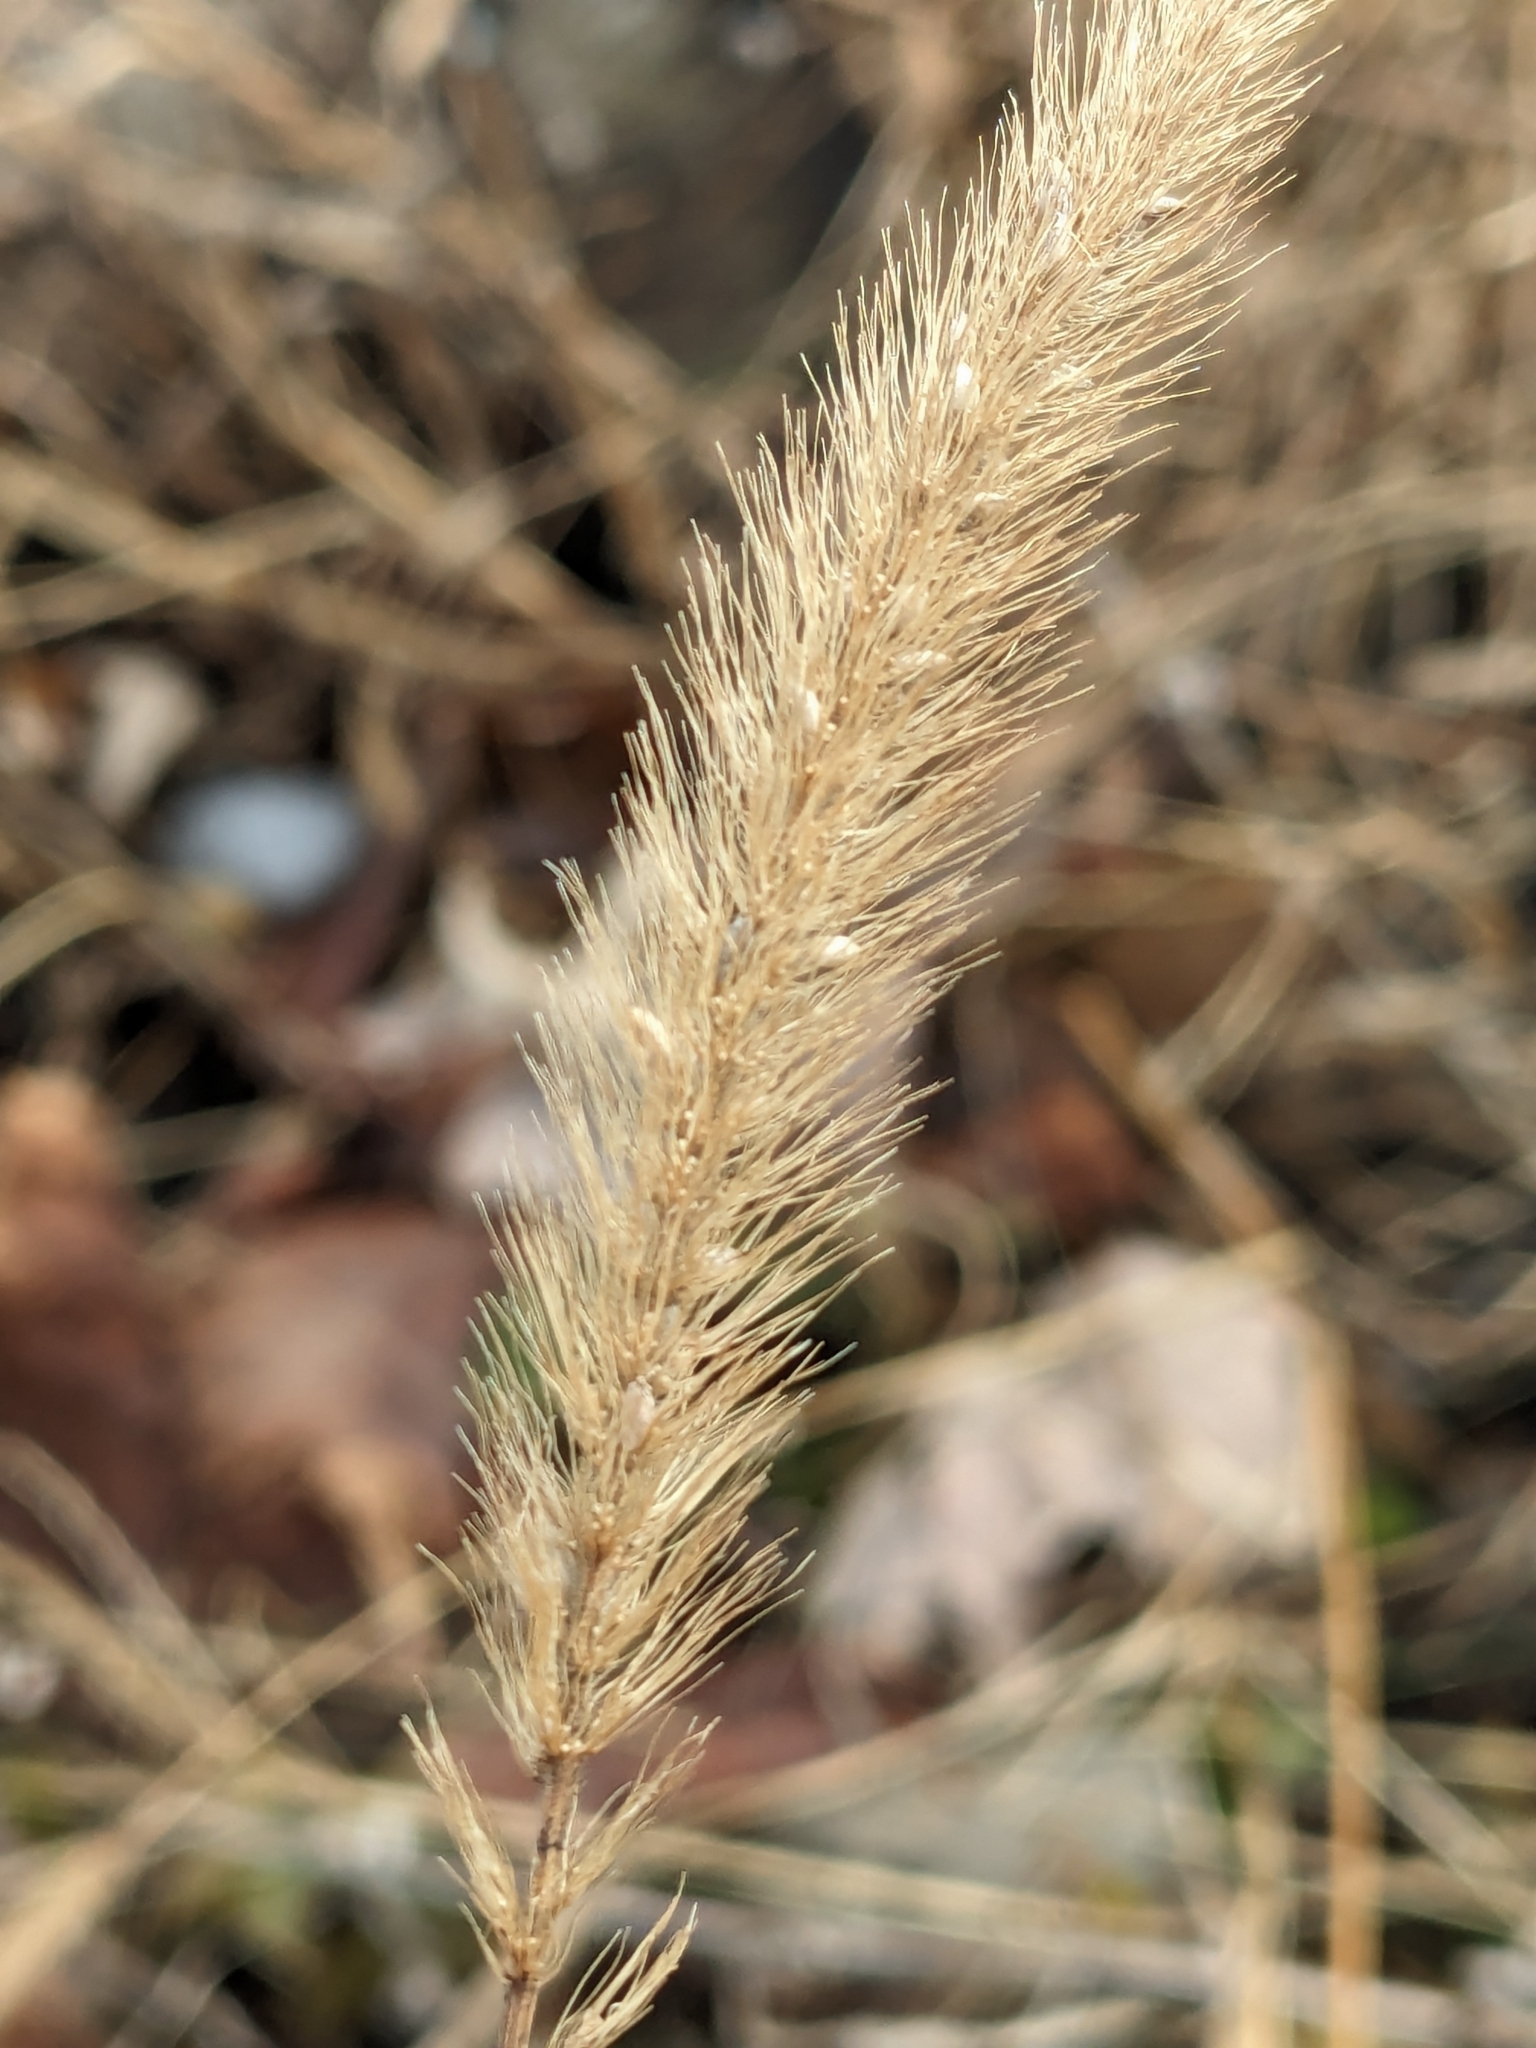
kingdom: Plantae
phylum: Tracheophyta
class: Liliopsida
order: Poales
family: Poaceae
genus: Setaria
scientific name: Setaria faberi
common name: Nodding bristle-grass
